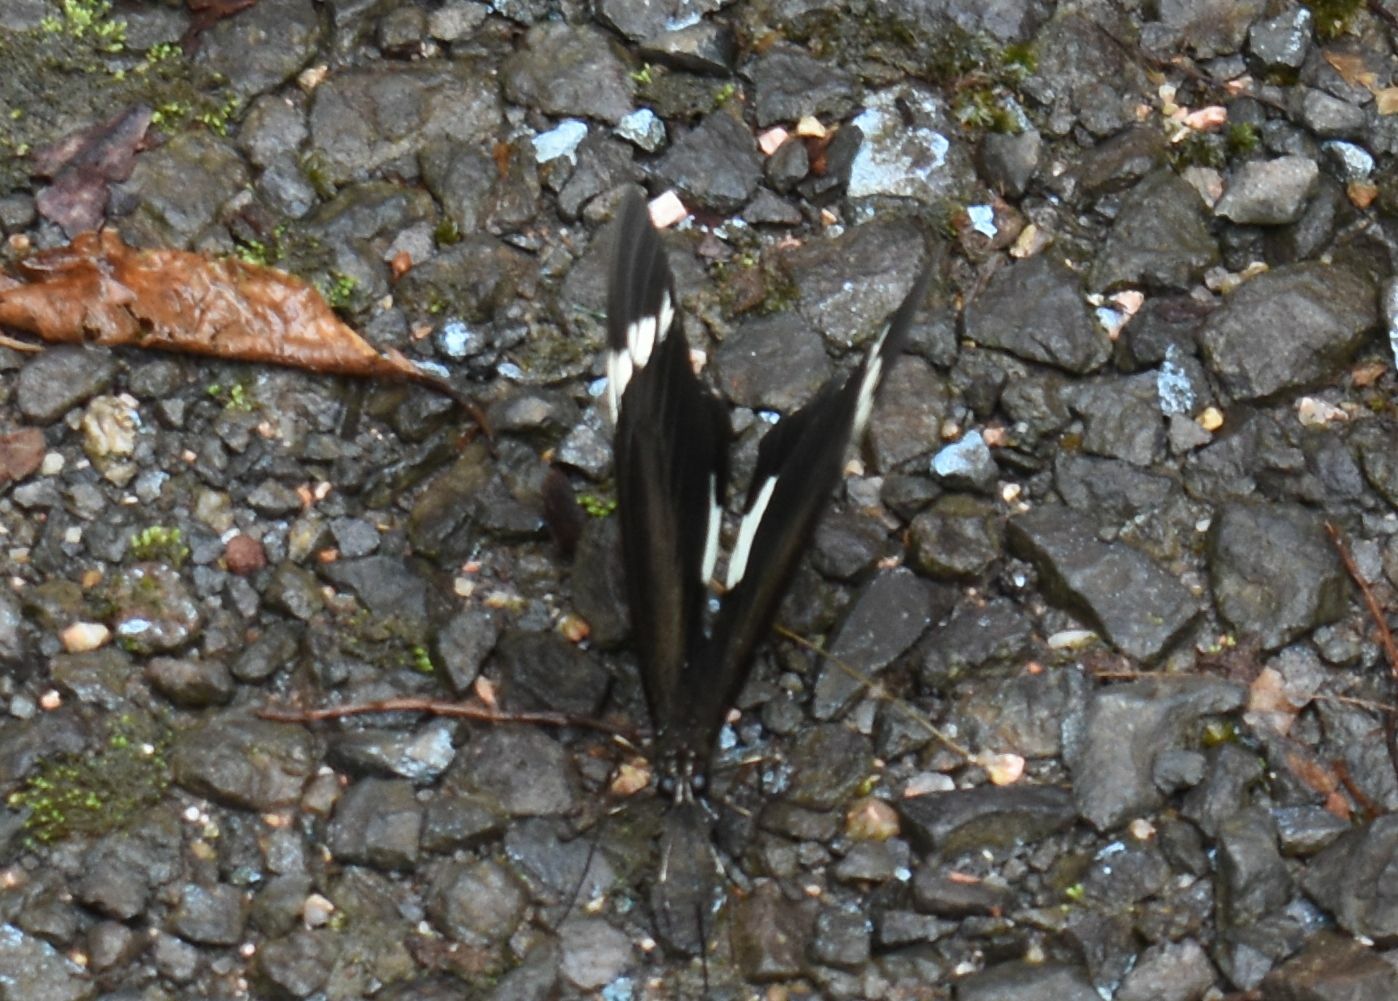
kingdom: Animalia
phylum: Arthropoda
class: Insecta
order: Lepidoptera
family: Papilionidae
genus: Papilio
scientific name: Papilio aegeus
